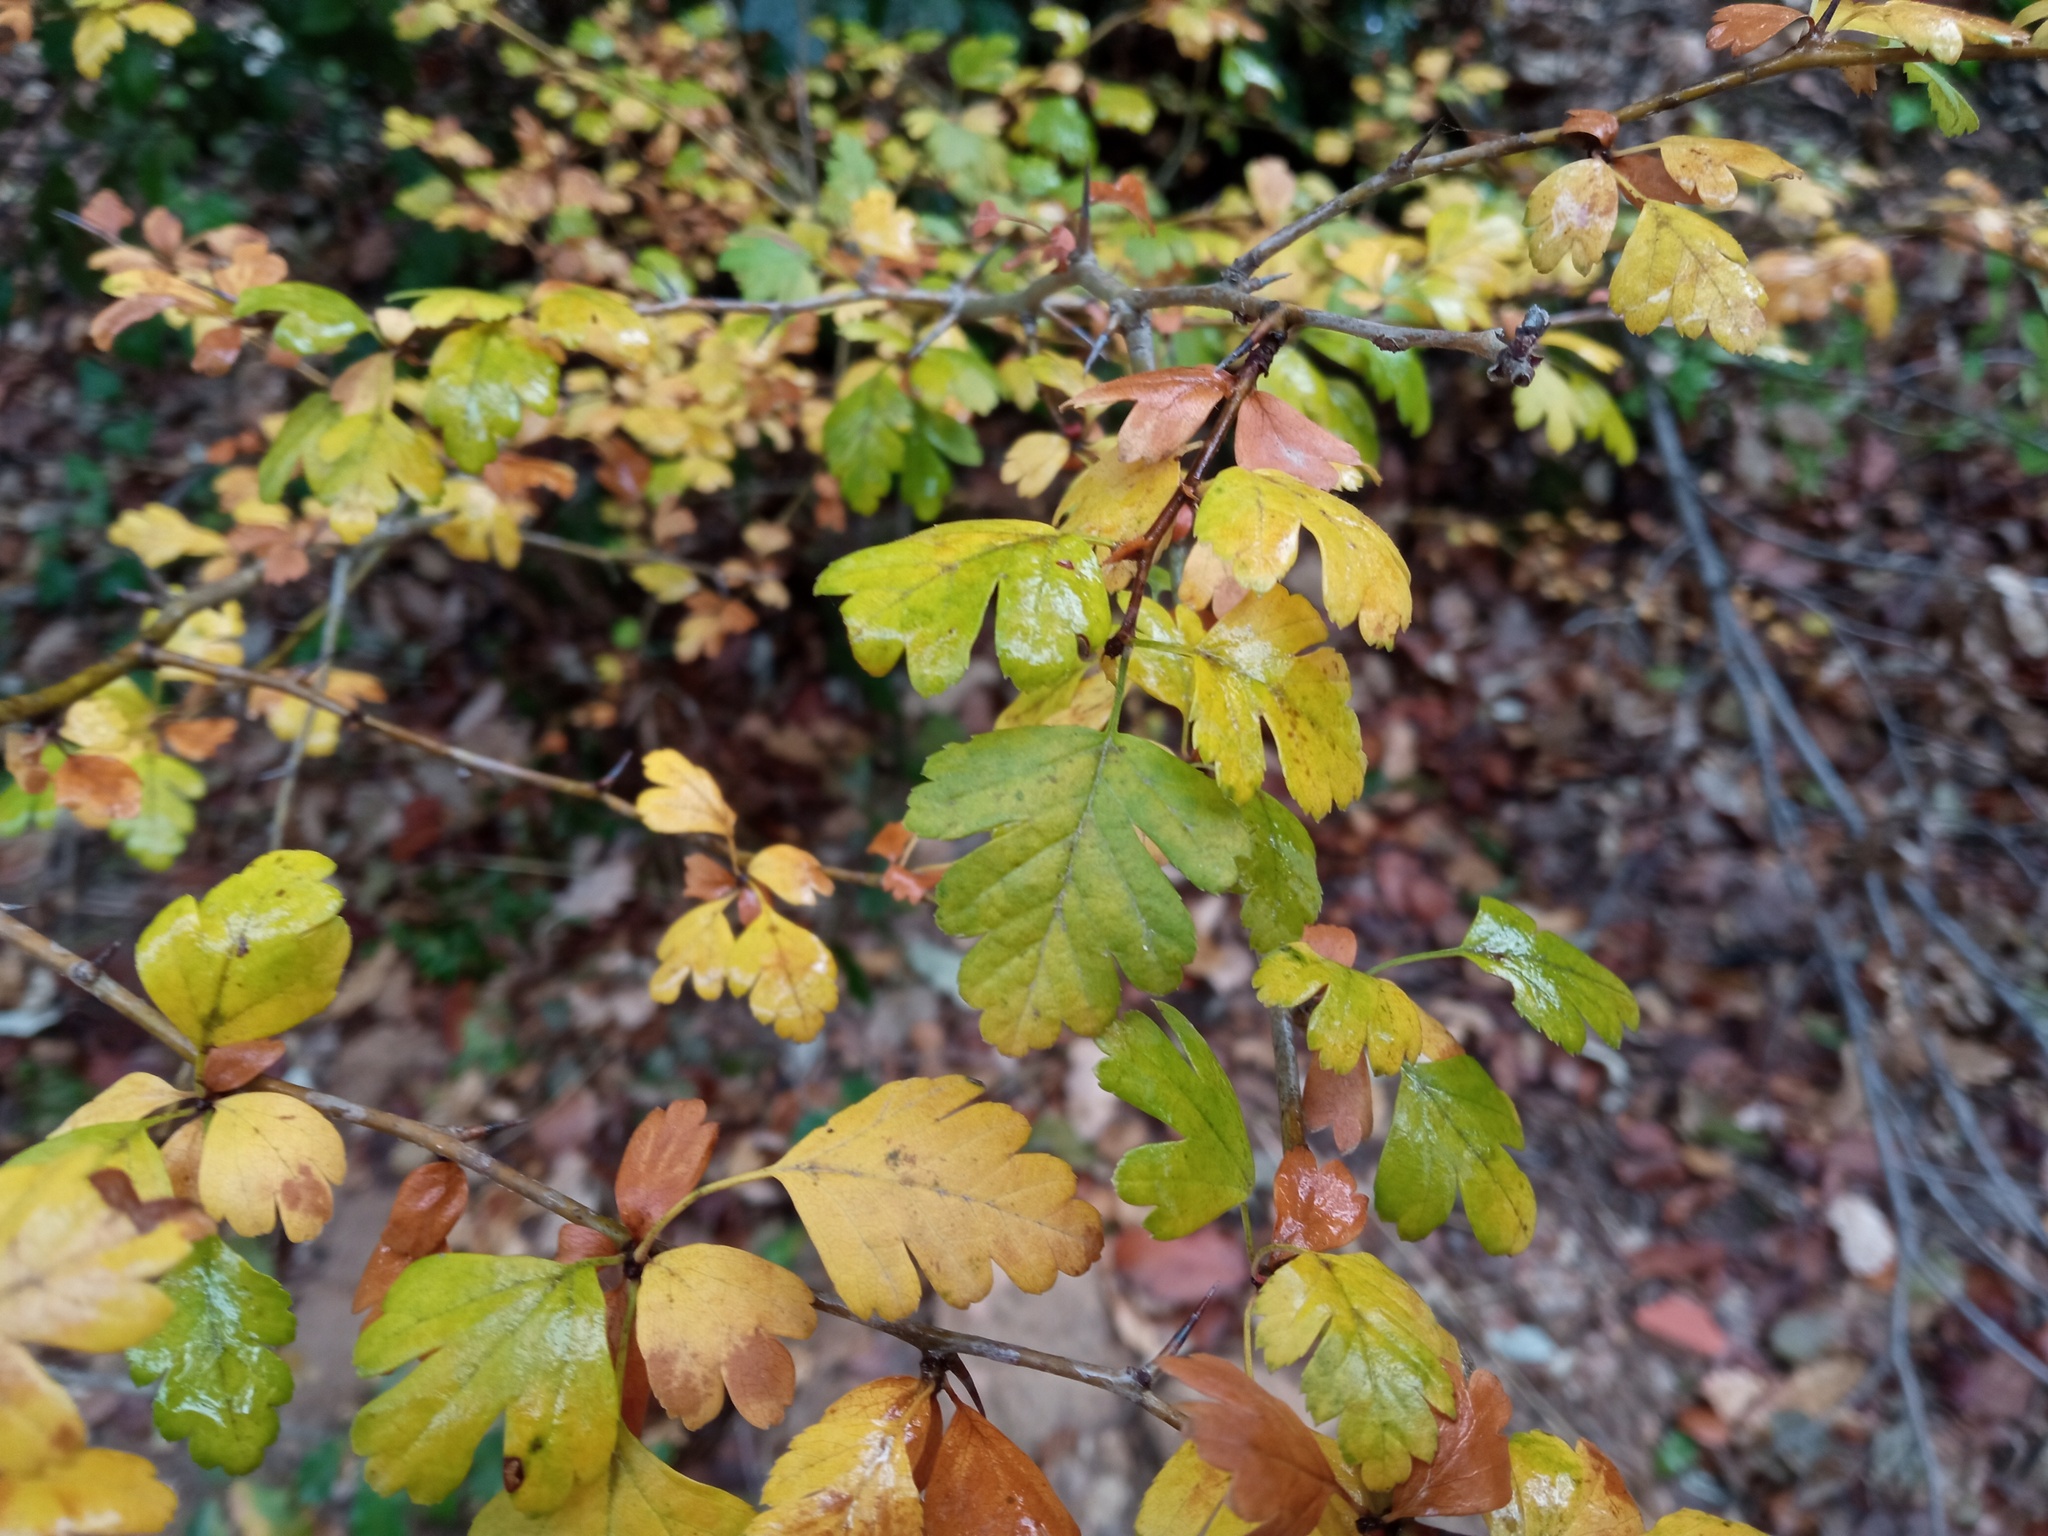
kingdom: Plantae
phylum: Tracheophyta
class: Magnoliopsida
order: Rosales
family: Rosaceae
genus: Crataegus
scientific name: Crataegus monogyna
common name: Hawthorn
